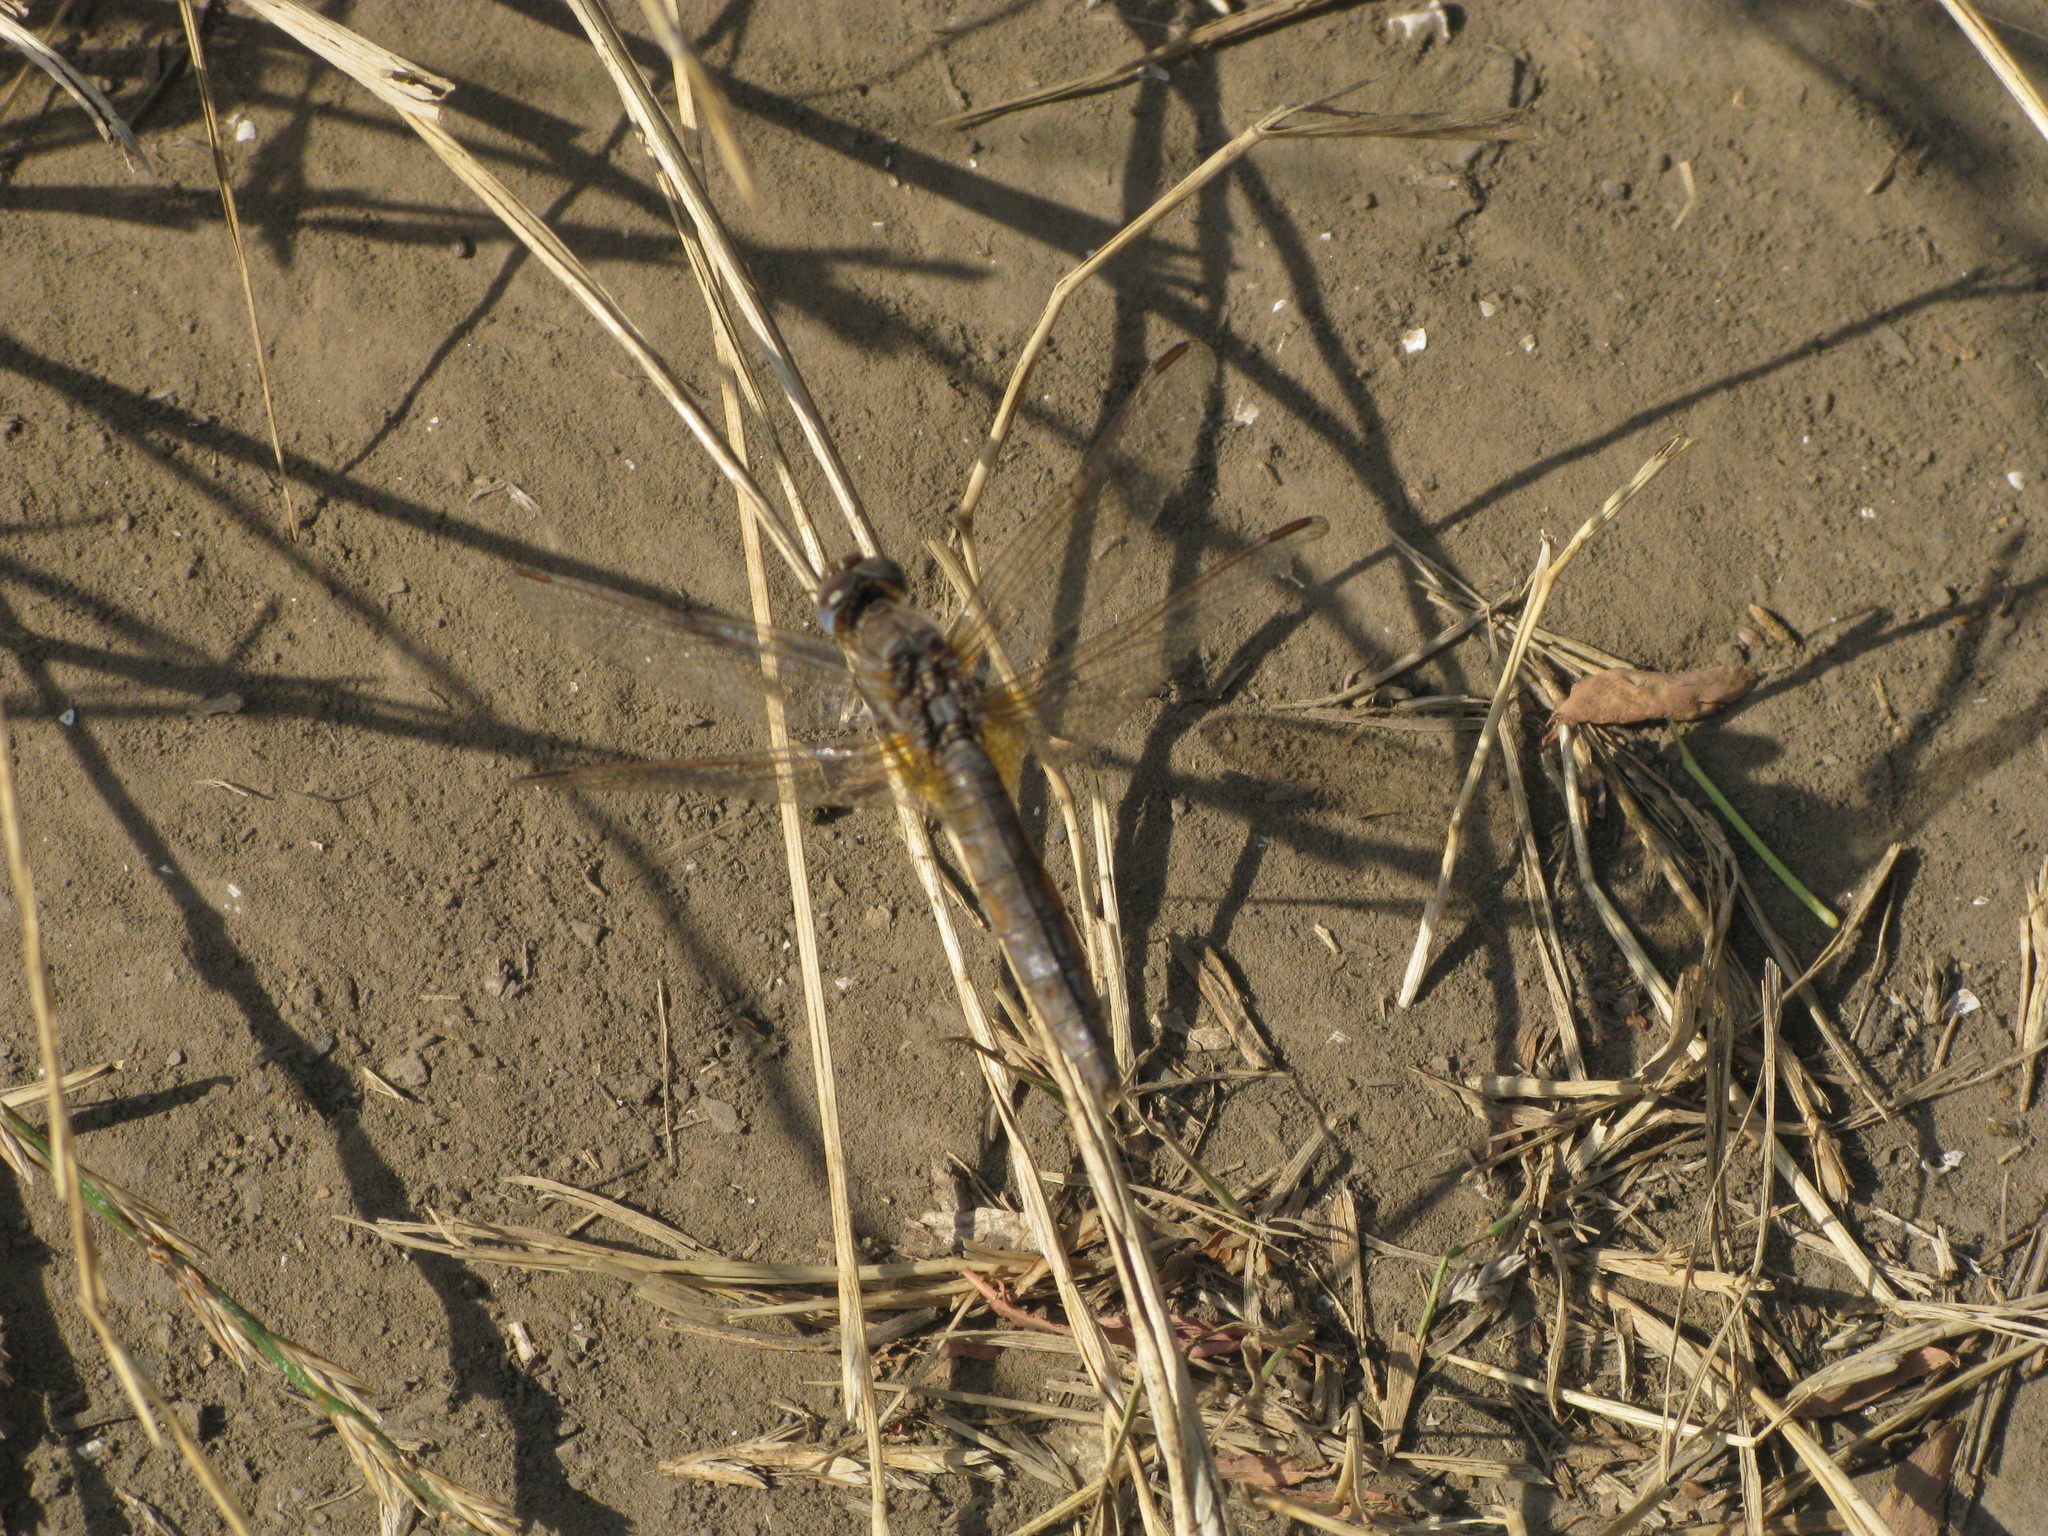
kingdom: Animalia
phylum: Arthropoda
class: Insecta
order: Odonata
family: Libellulidae
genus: Crocothemis
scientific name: Crocothemis erythraea
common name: Scarlet dragonfly
